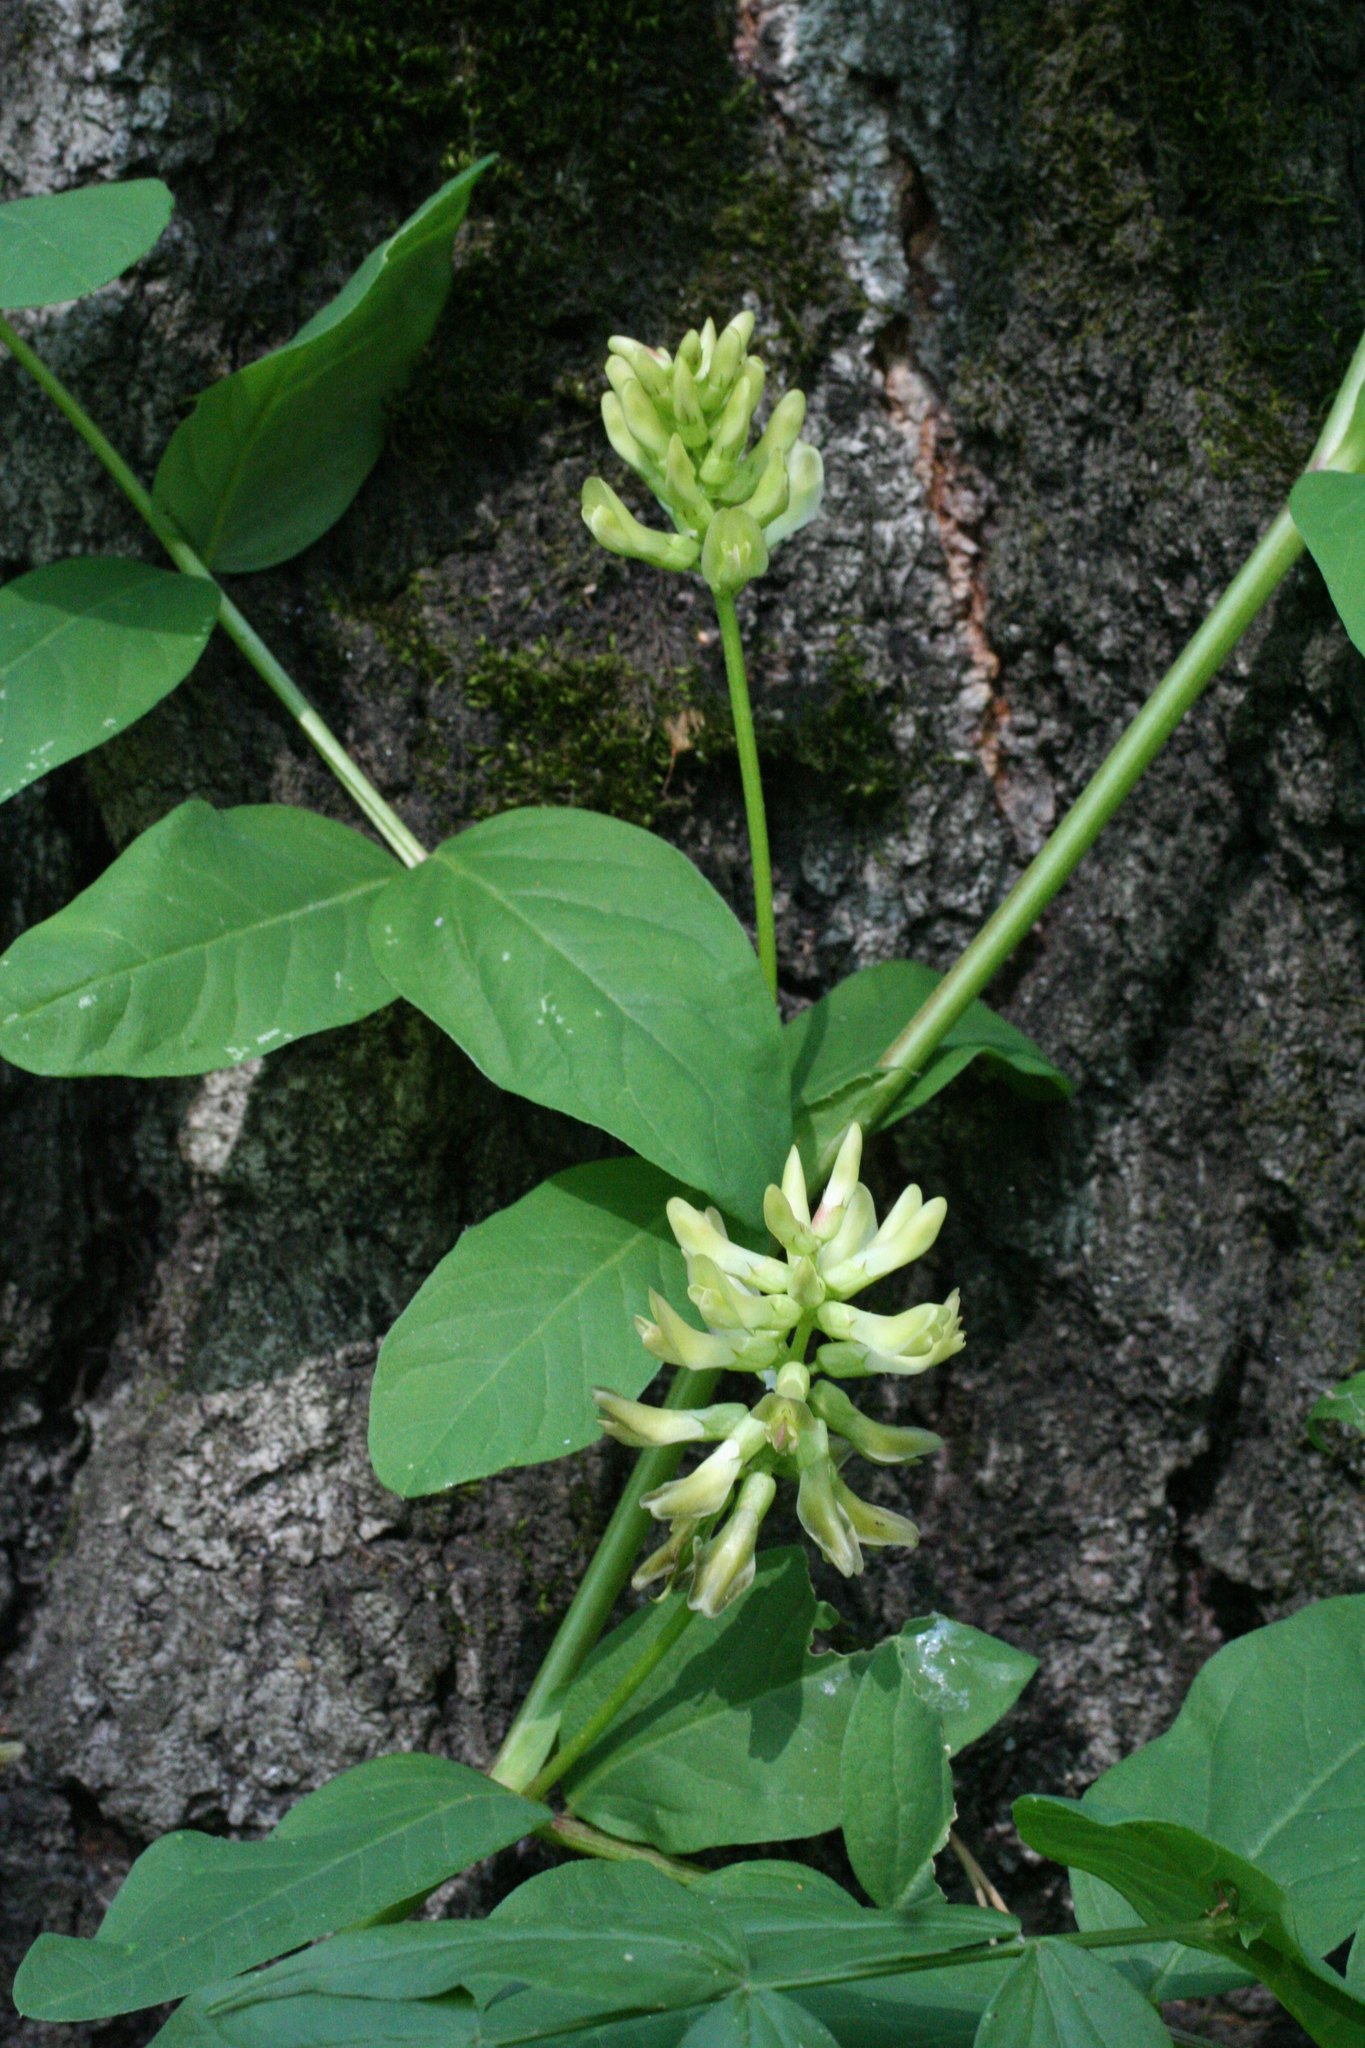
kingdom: Plantae
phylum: Tracheophyta
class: Magnoliopsida
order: Fabales
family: Fabaceae
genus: Astragalus
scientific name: Astragalus glycyphyllos
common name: Wild liquorice
